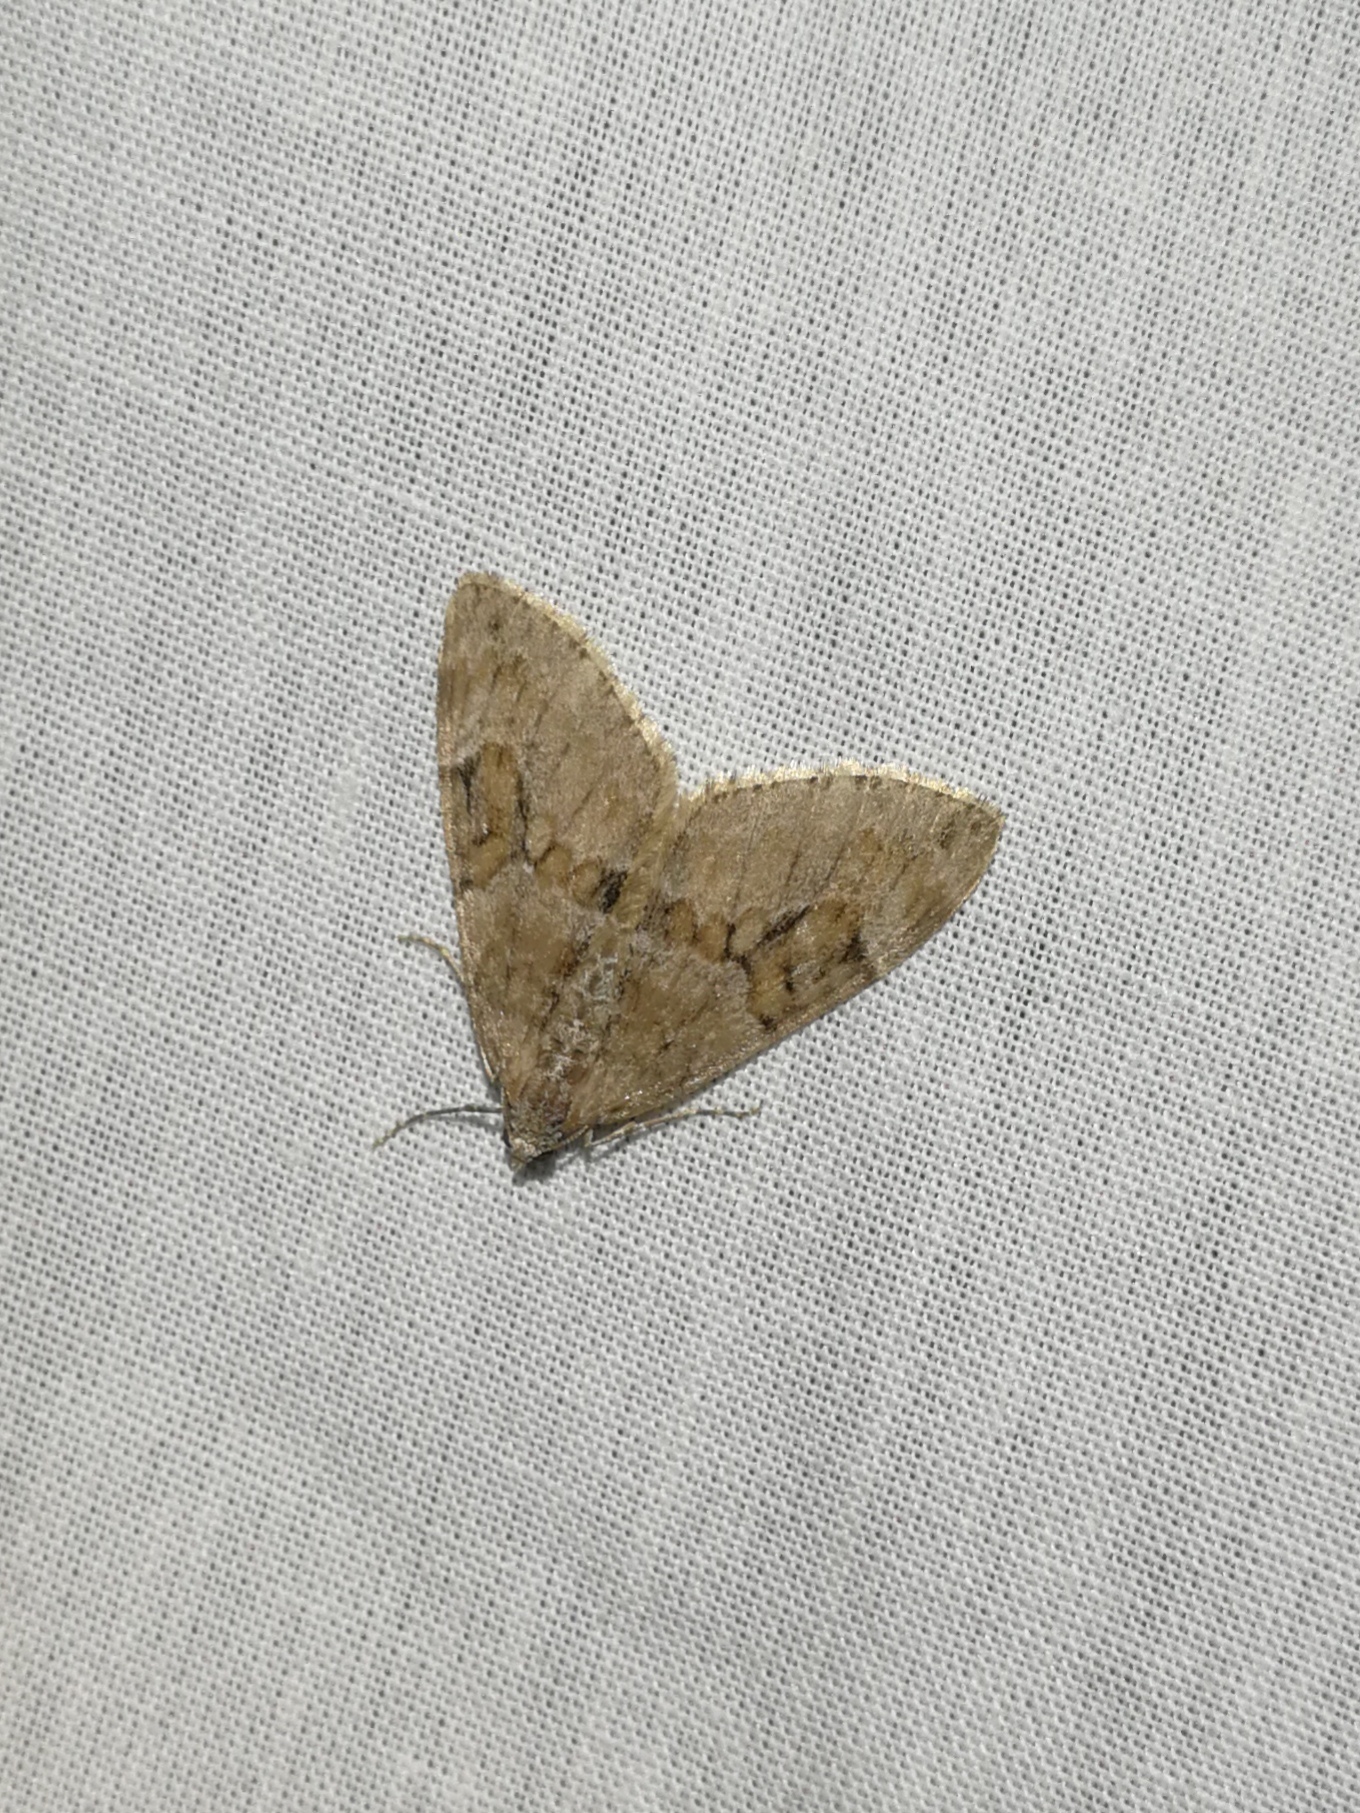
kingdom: Animalia
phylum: Arthropoda
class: Insecta
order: Lepidoptera
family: Geometridae
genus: Thera
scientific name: Thera obeliscata
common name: Grey pine carpet
